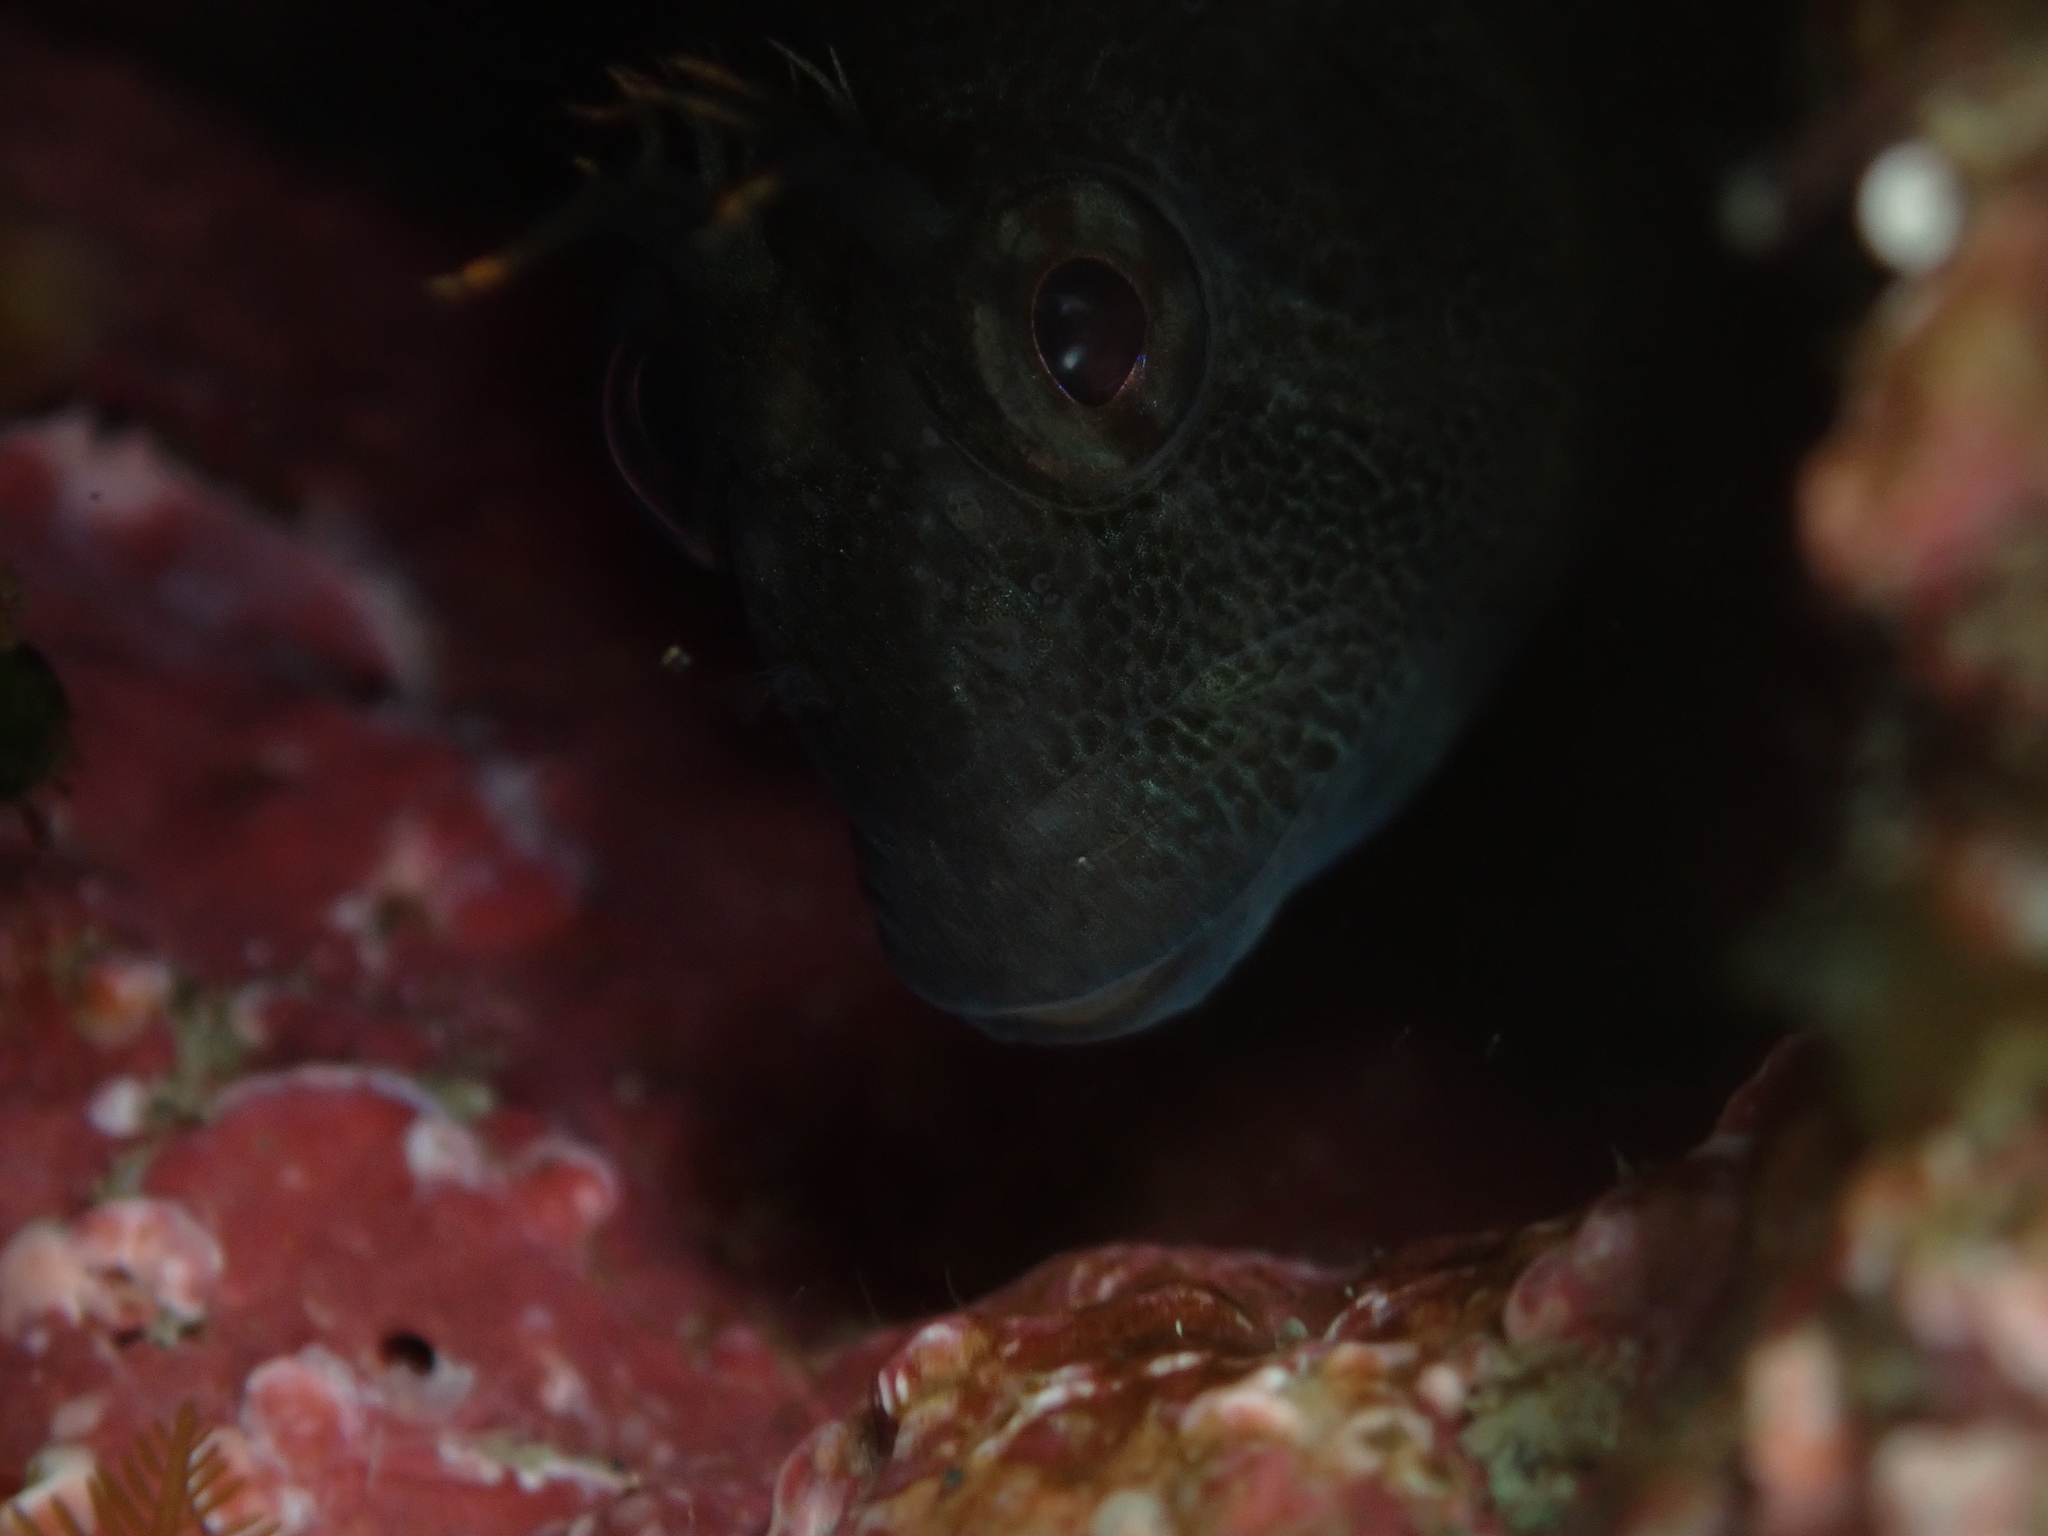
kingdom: Animalia
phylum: Chordata
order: Perciformes
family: Blenniidae
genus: Parablennius
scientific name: Parablennius tasmanianus
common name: Tasmanian blenny
